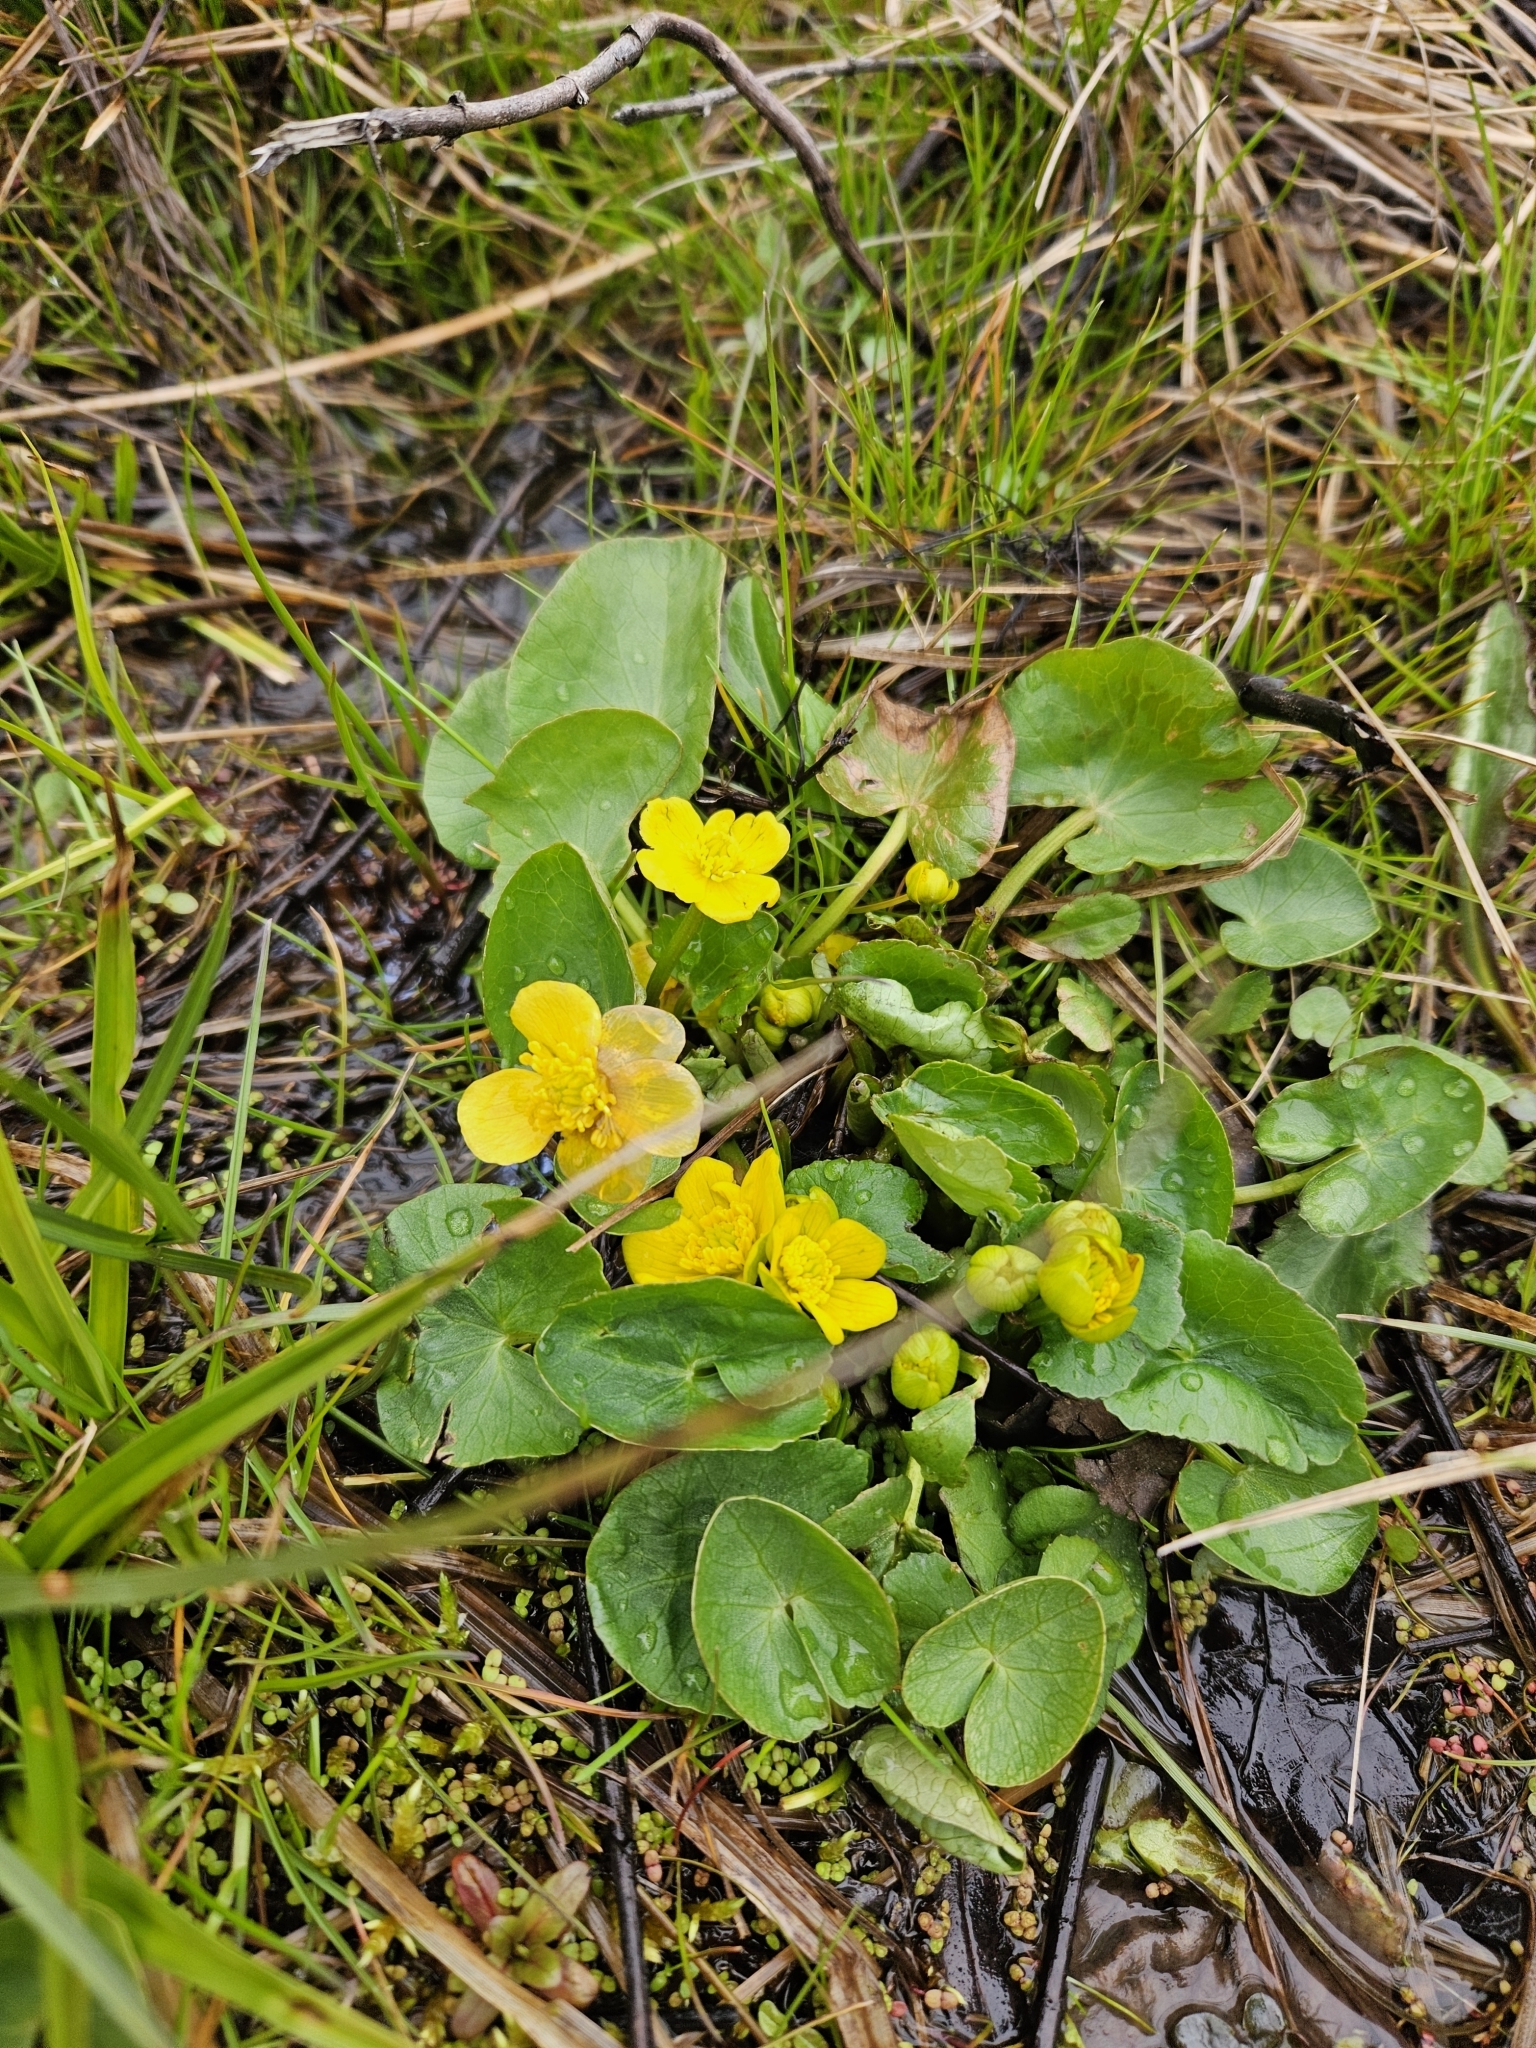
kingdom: Plantae
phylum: Tracheophyta
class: Magnoliopsida
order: Ranunculales
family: Ranunculaceae
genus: Caltha
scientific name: Caltha palustris
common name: Marsh marigold
